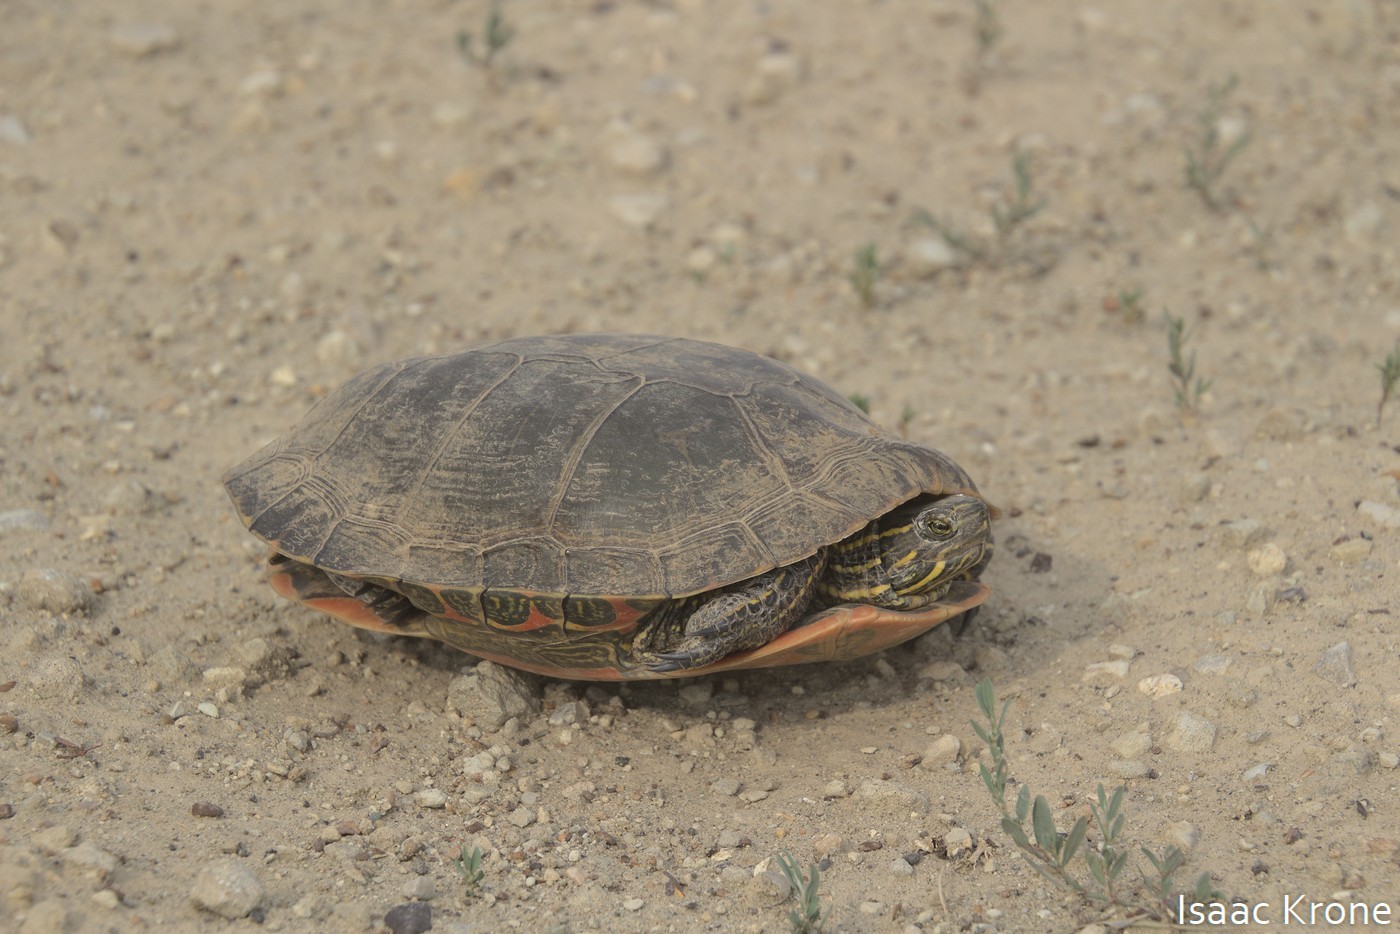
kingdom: Animalia
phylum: Chordata
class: Testudines
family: Emydidae
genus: Chrysemys
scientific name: Chrysemys picta
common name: Painted turtle
